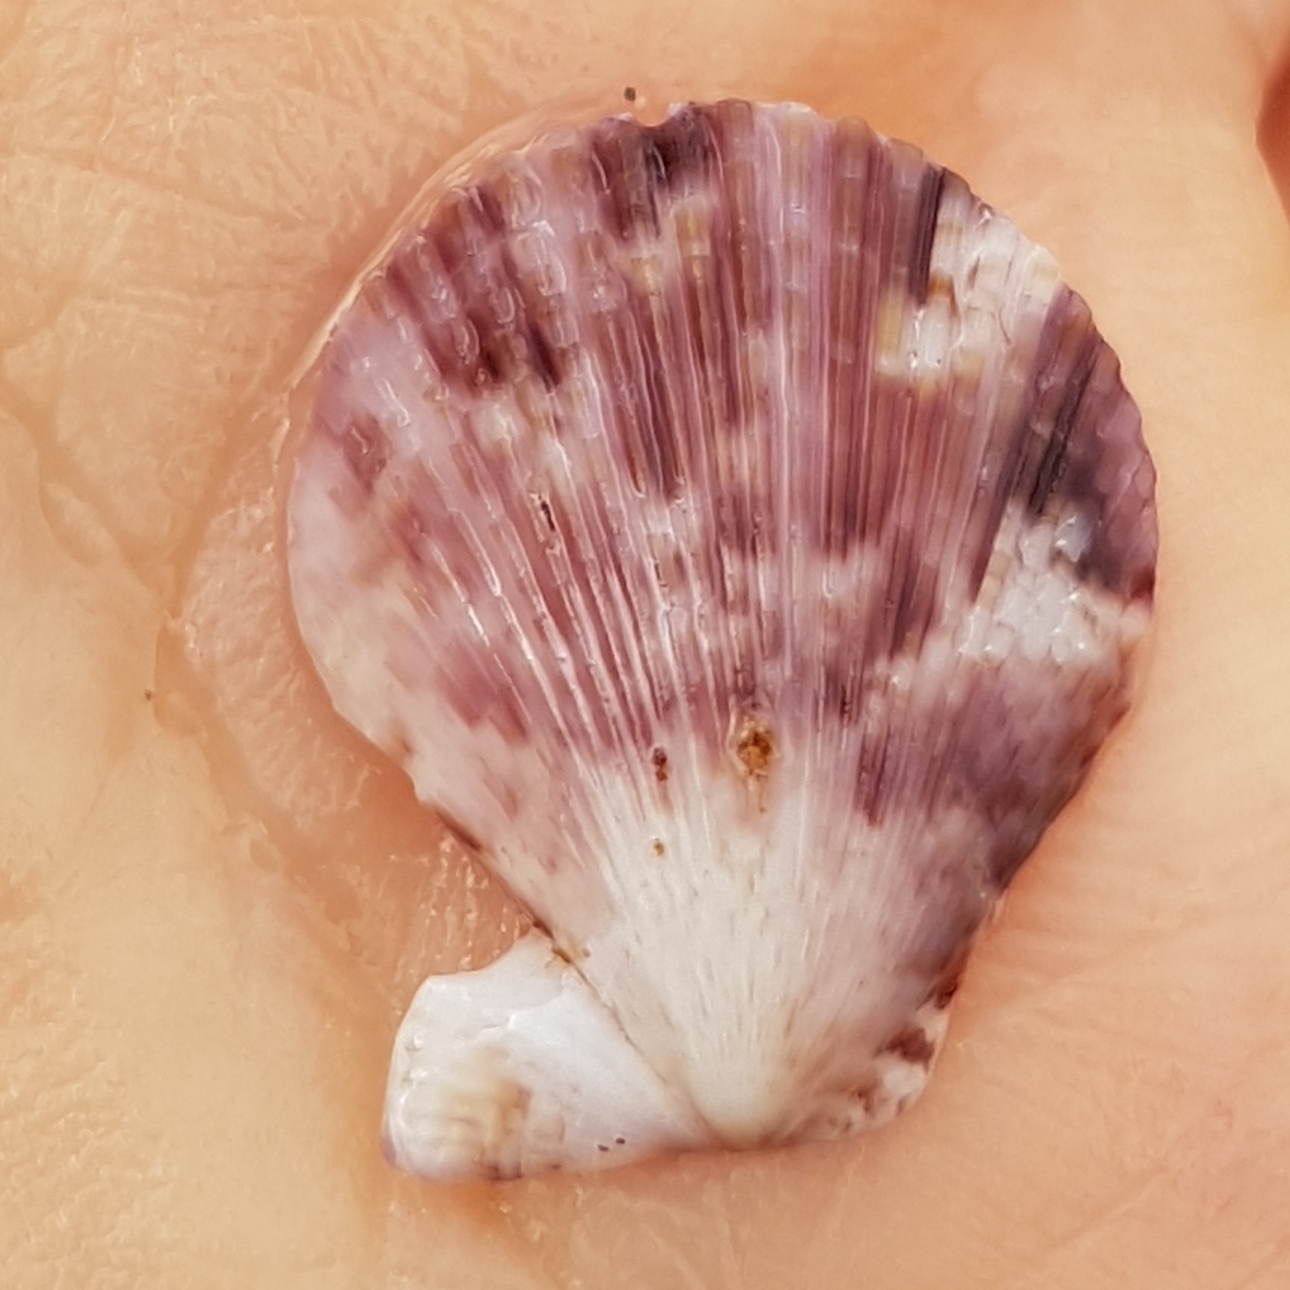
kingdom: Animalia
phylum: Mollusca
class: Bivalvia
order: Pectinida
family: Pectinidae
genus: Mimachlamys
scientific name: Mimachlamys varia
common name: Variegated scallop
